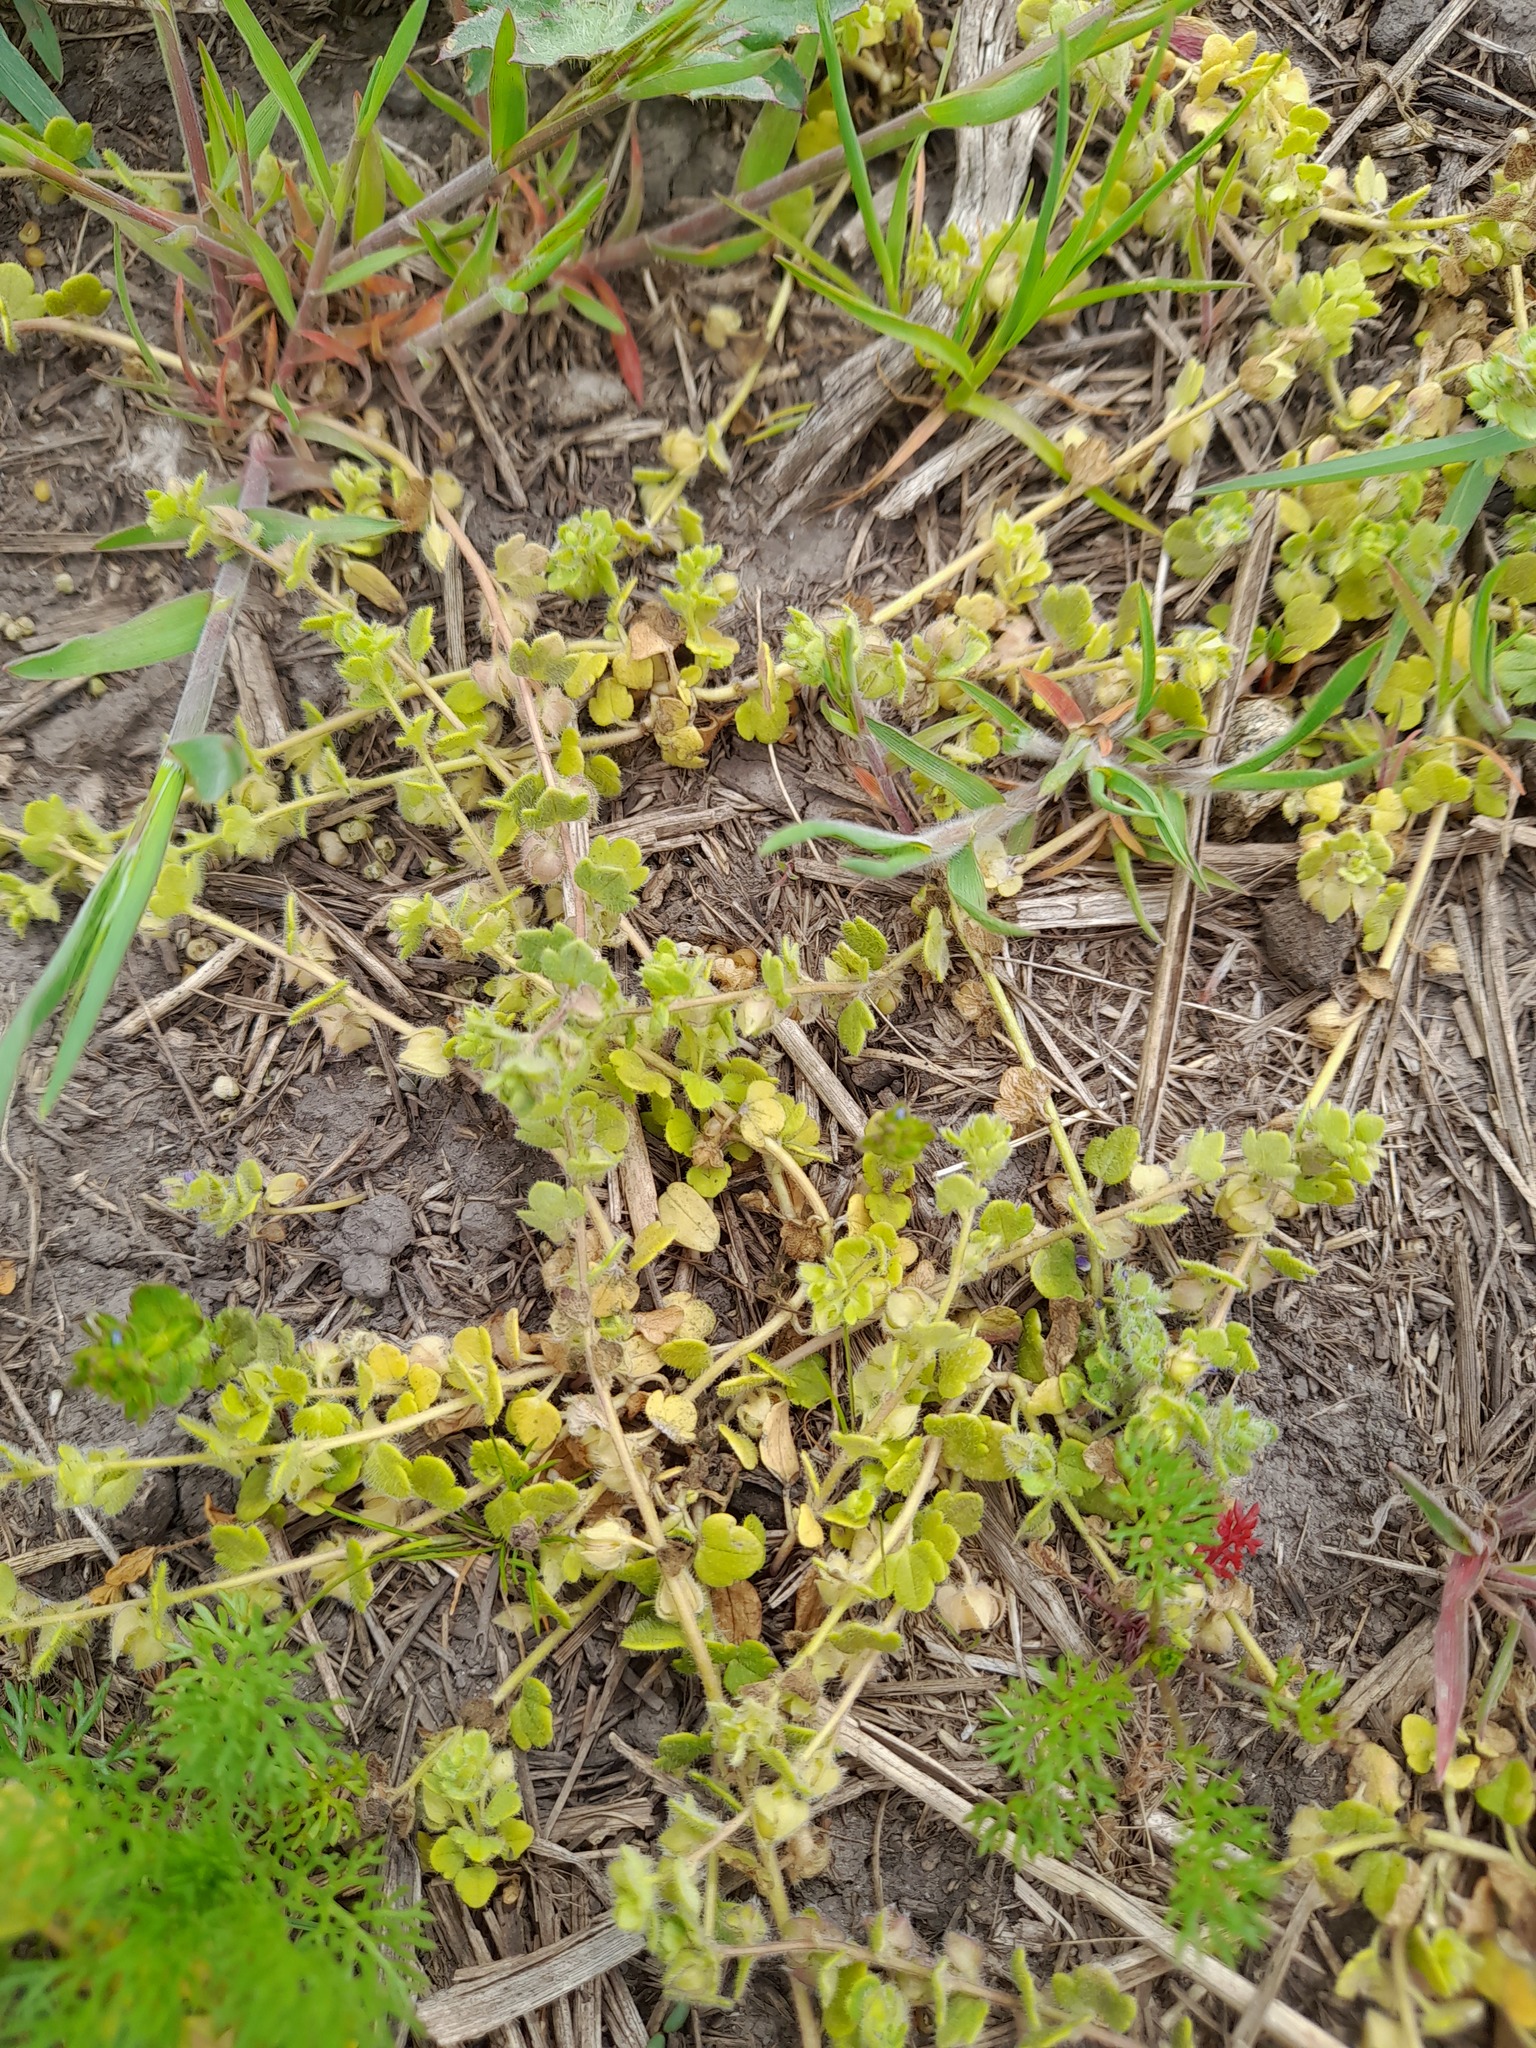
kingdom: Plantae
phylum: Tracheophyta
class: Magnoliopsida
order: Lamiales
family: Plantaginaceae
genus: Veronica
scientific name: Veronica triloba
